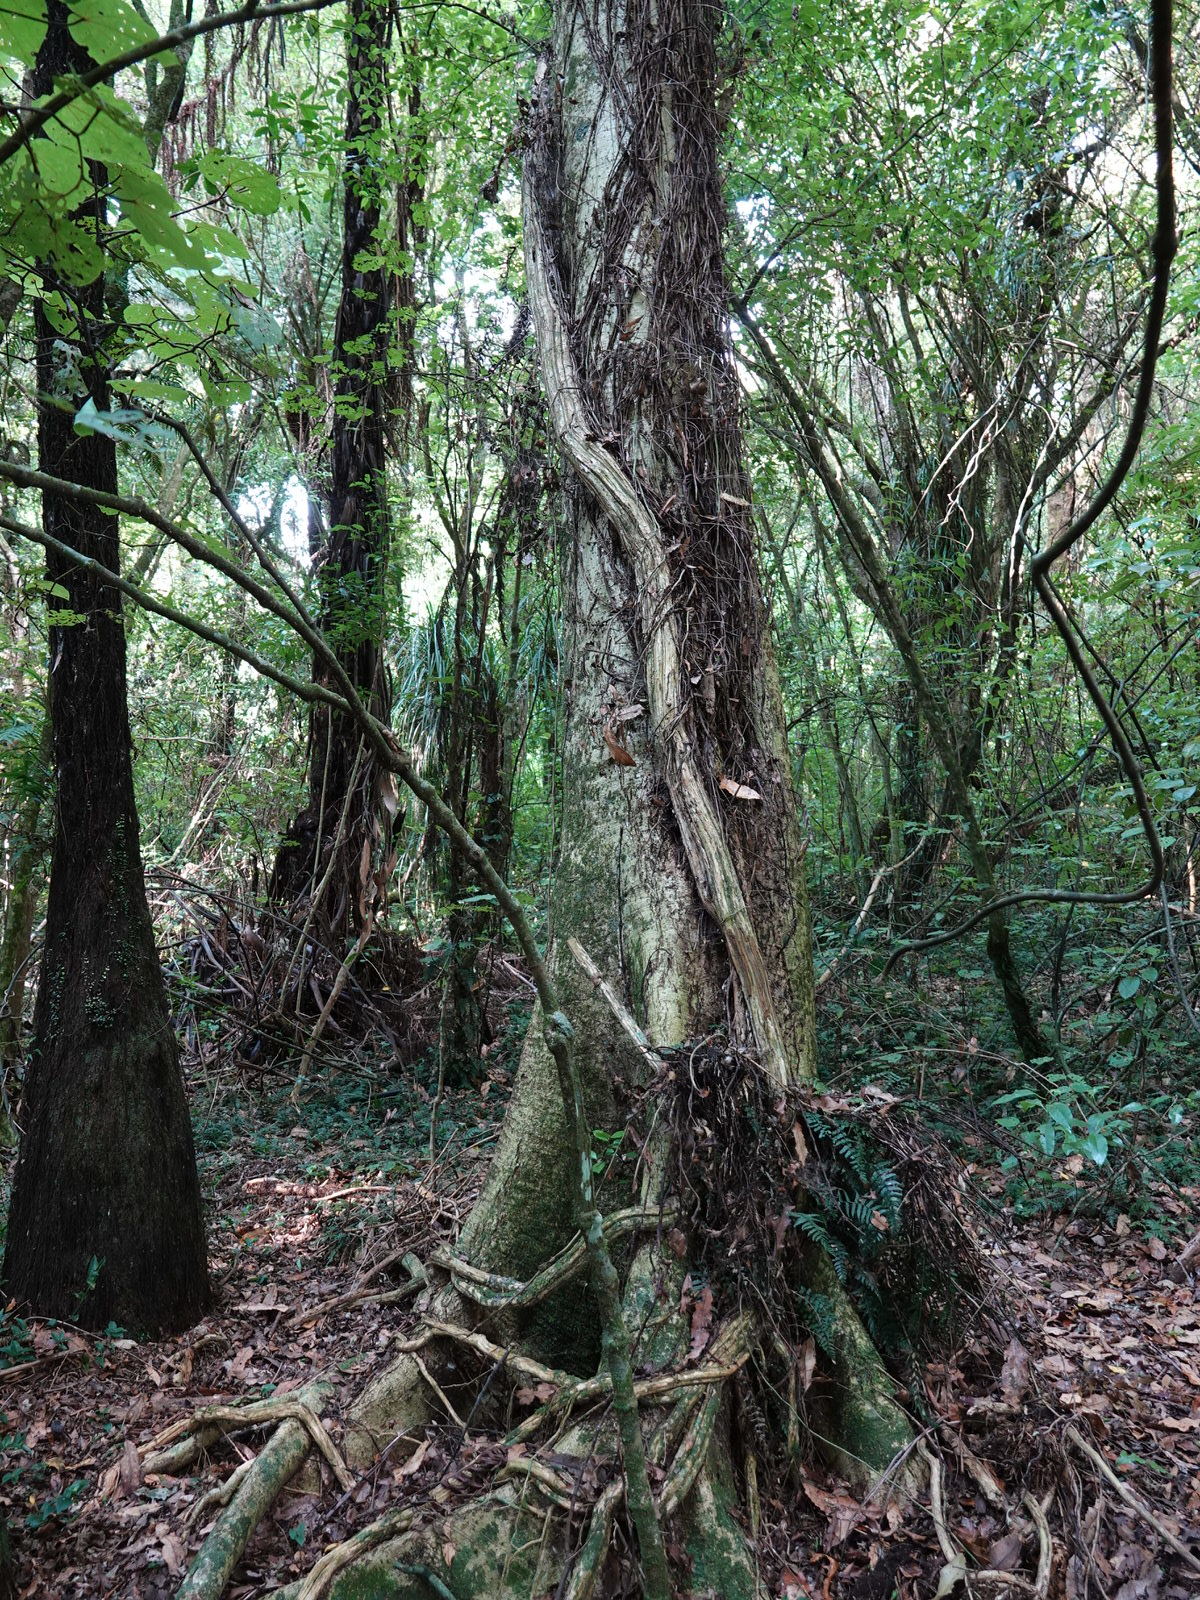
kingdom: Plantae
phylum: Tracheophyta
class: Magnoliopsida
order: Apiales
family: Griseliniaceae
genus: Griselinia
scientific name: Griselinia lucida
